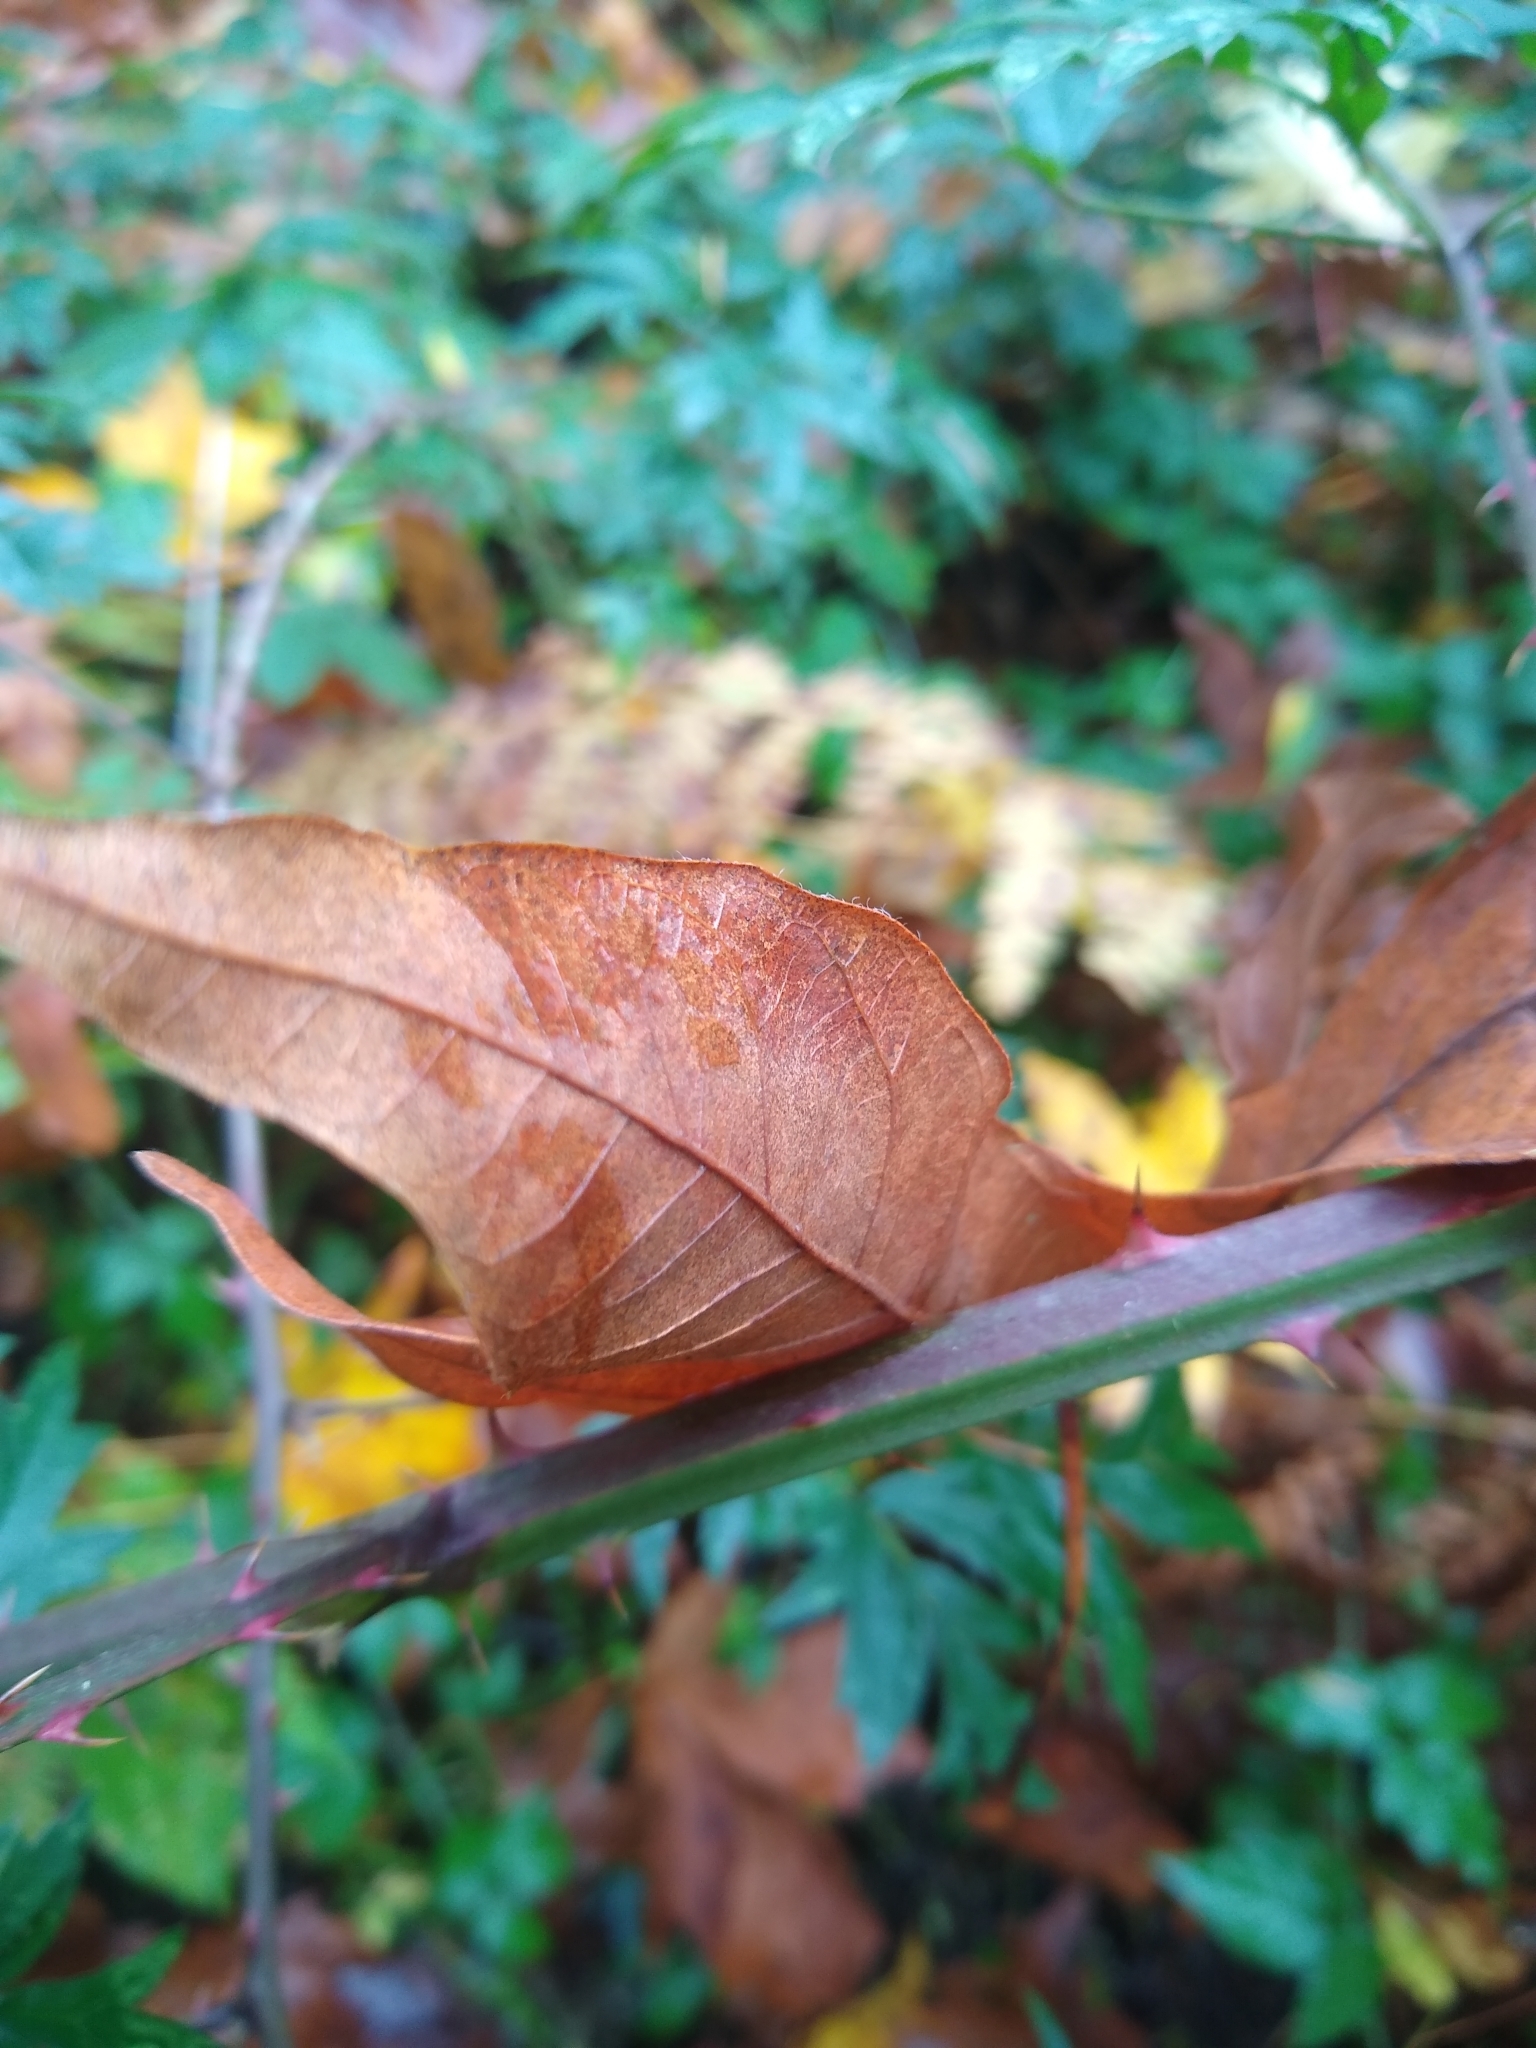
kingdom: Plantae
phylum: Tracheophyta
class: Magnoliopsida
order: Rosales
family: Rosaceae
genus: Rubus
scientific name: Rubus laciniatus
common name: Evergreen blackberry
